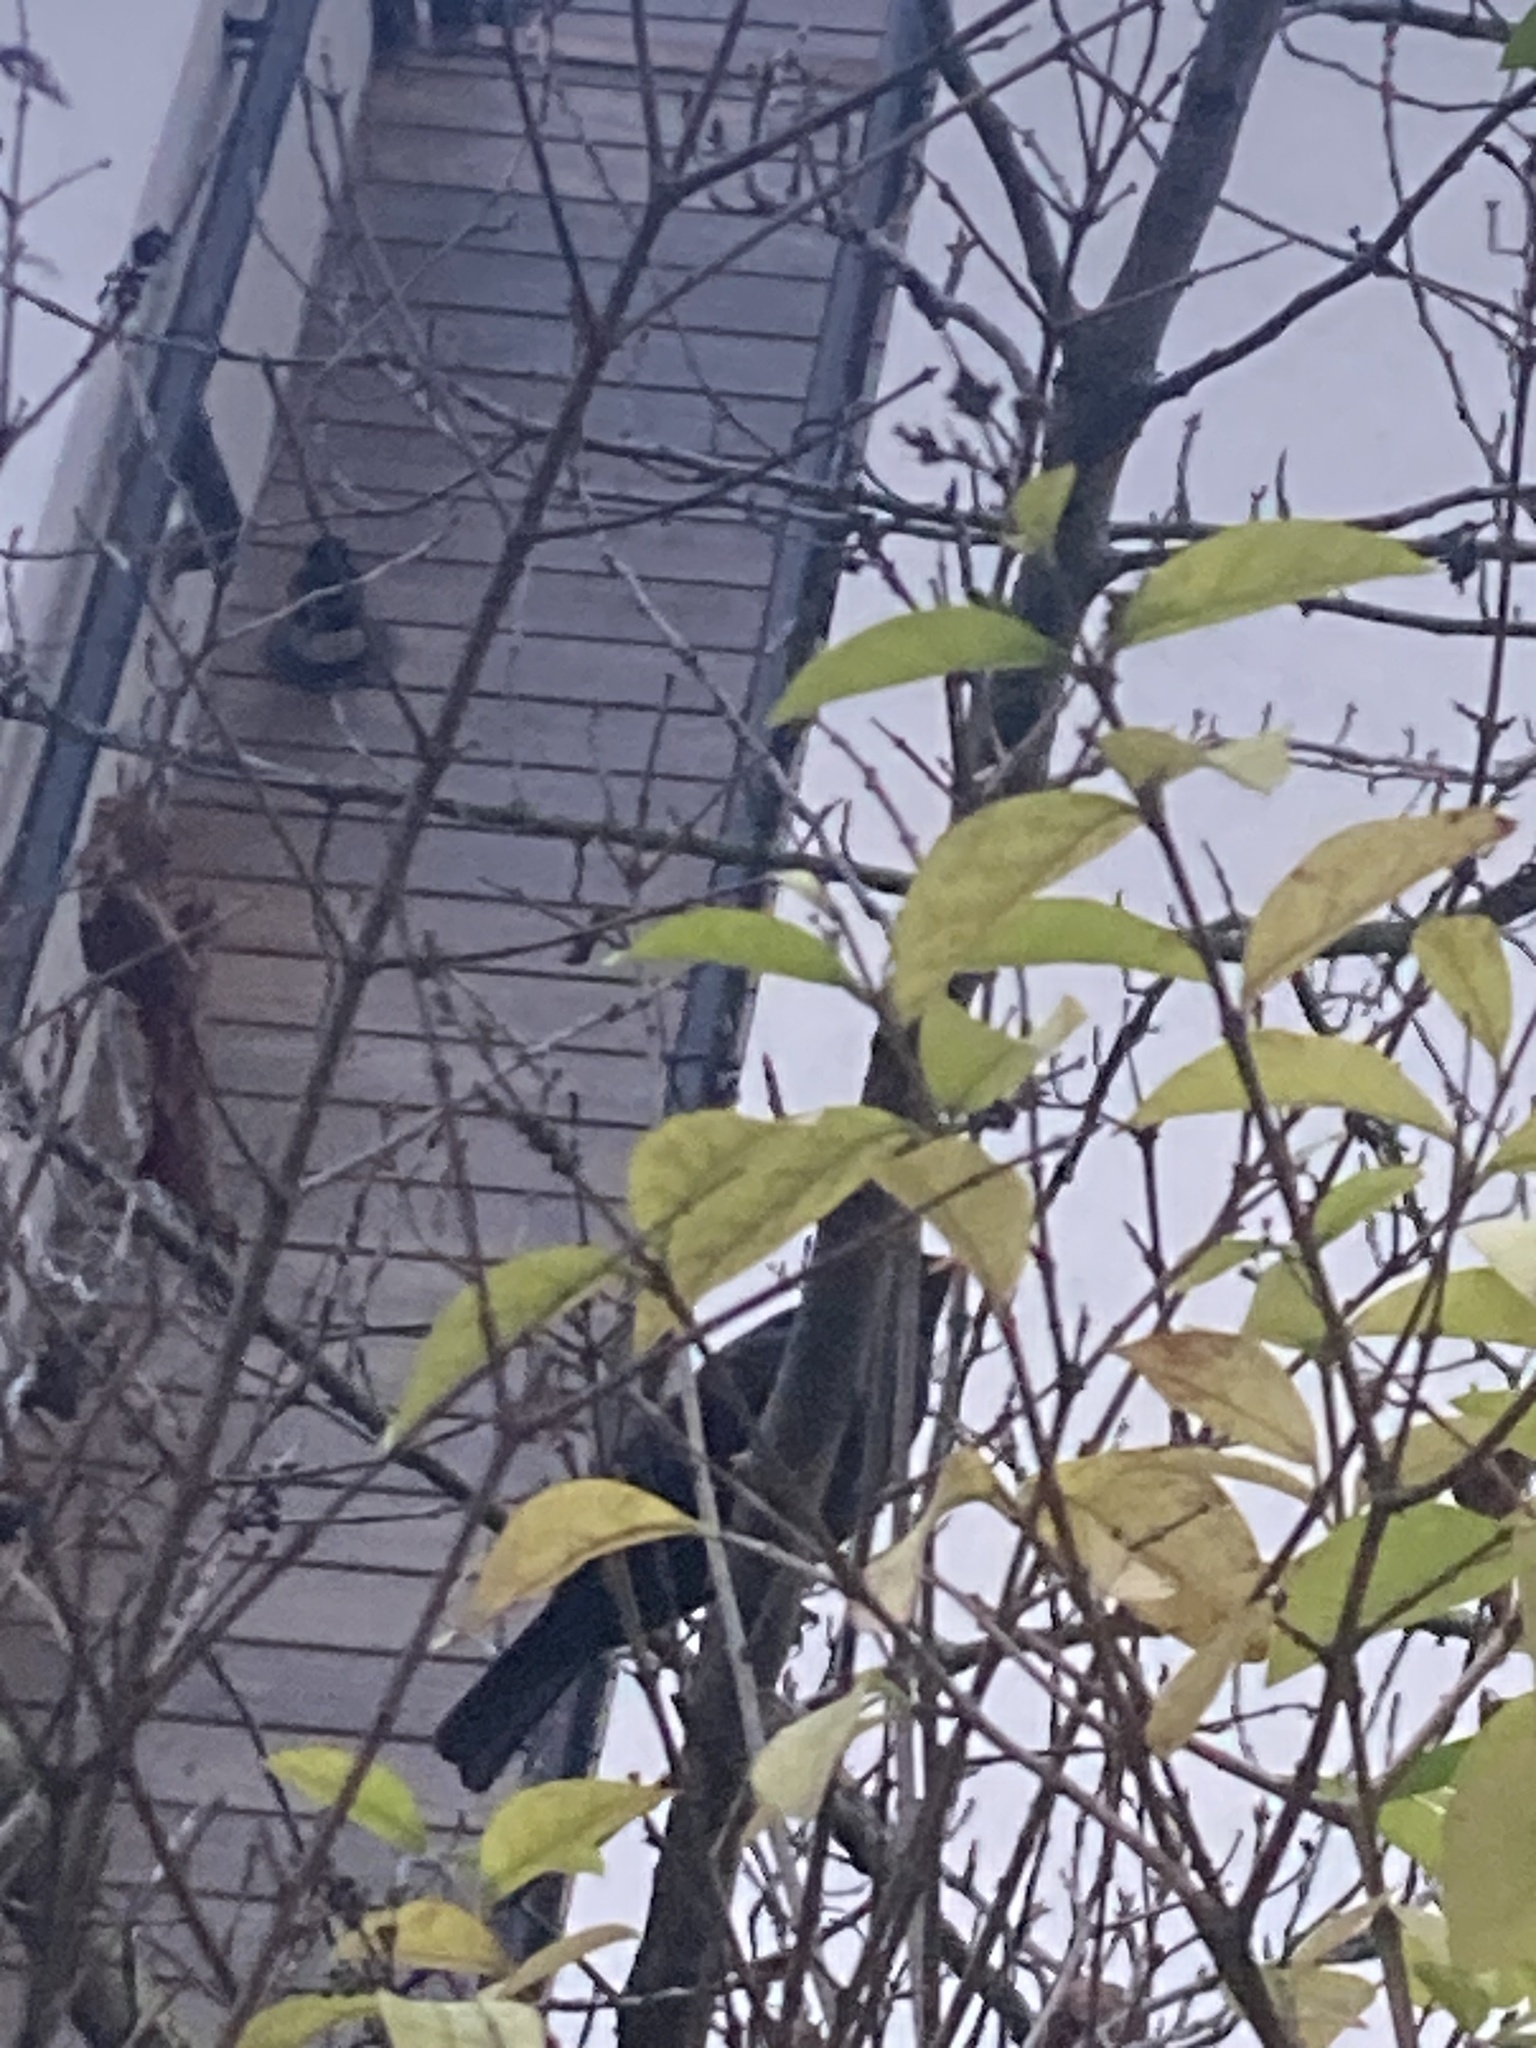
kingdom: Animalia
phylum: Chordata
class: Aves
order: Passeriformes
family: Turdidae
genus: Turdus
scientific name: Turdus merula
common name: Common blackbird
